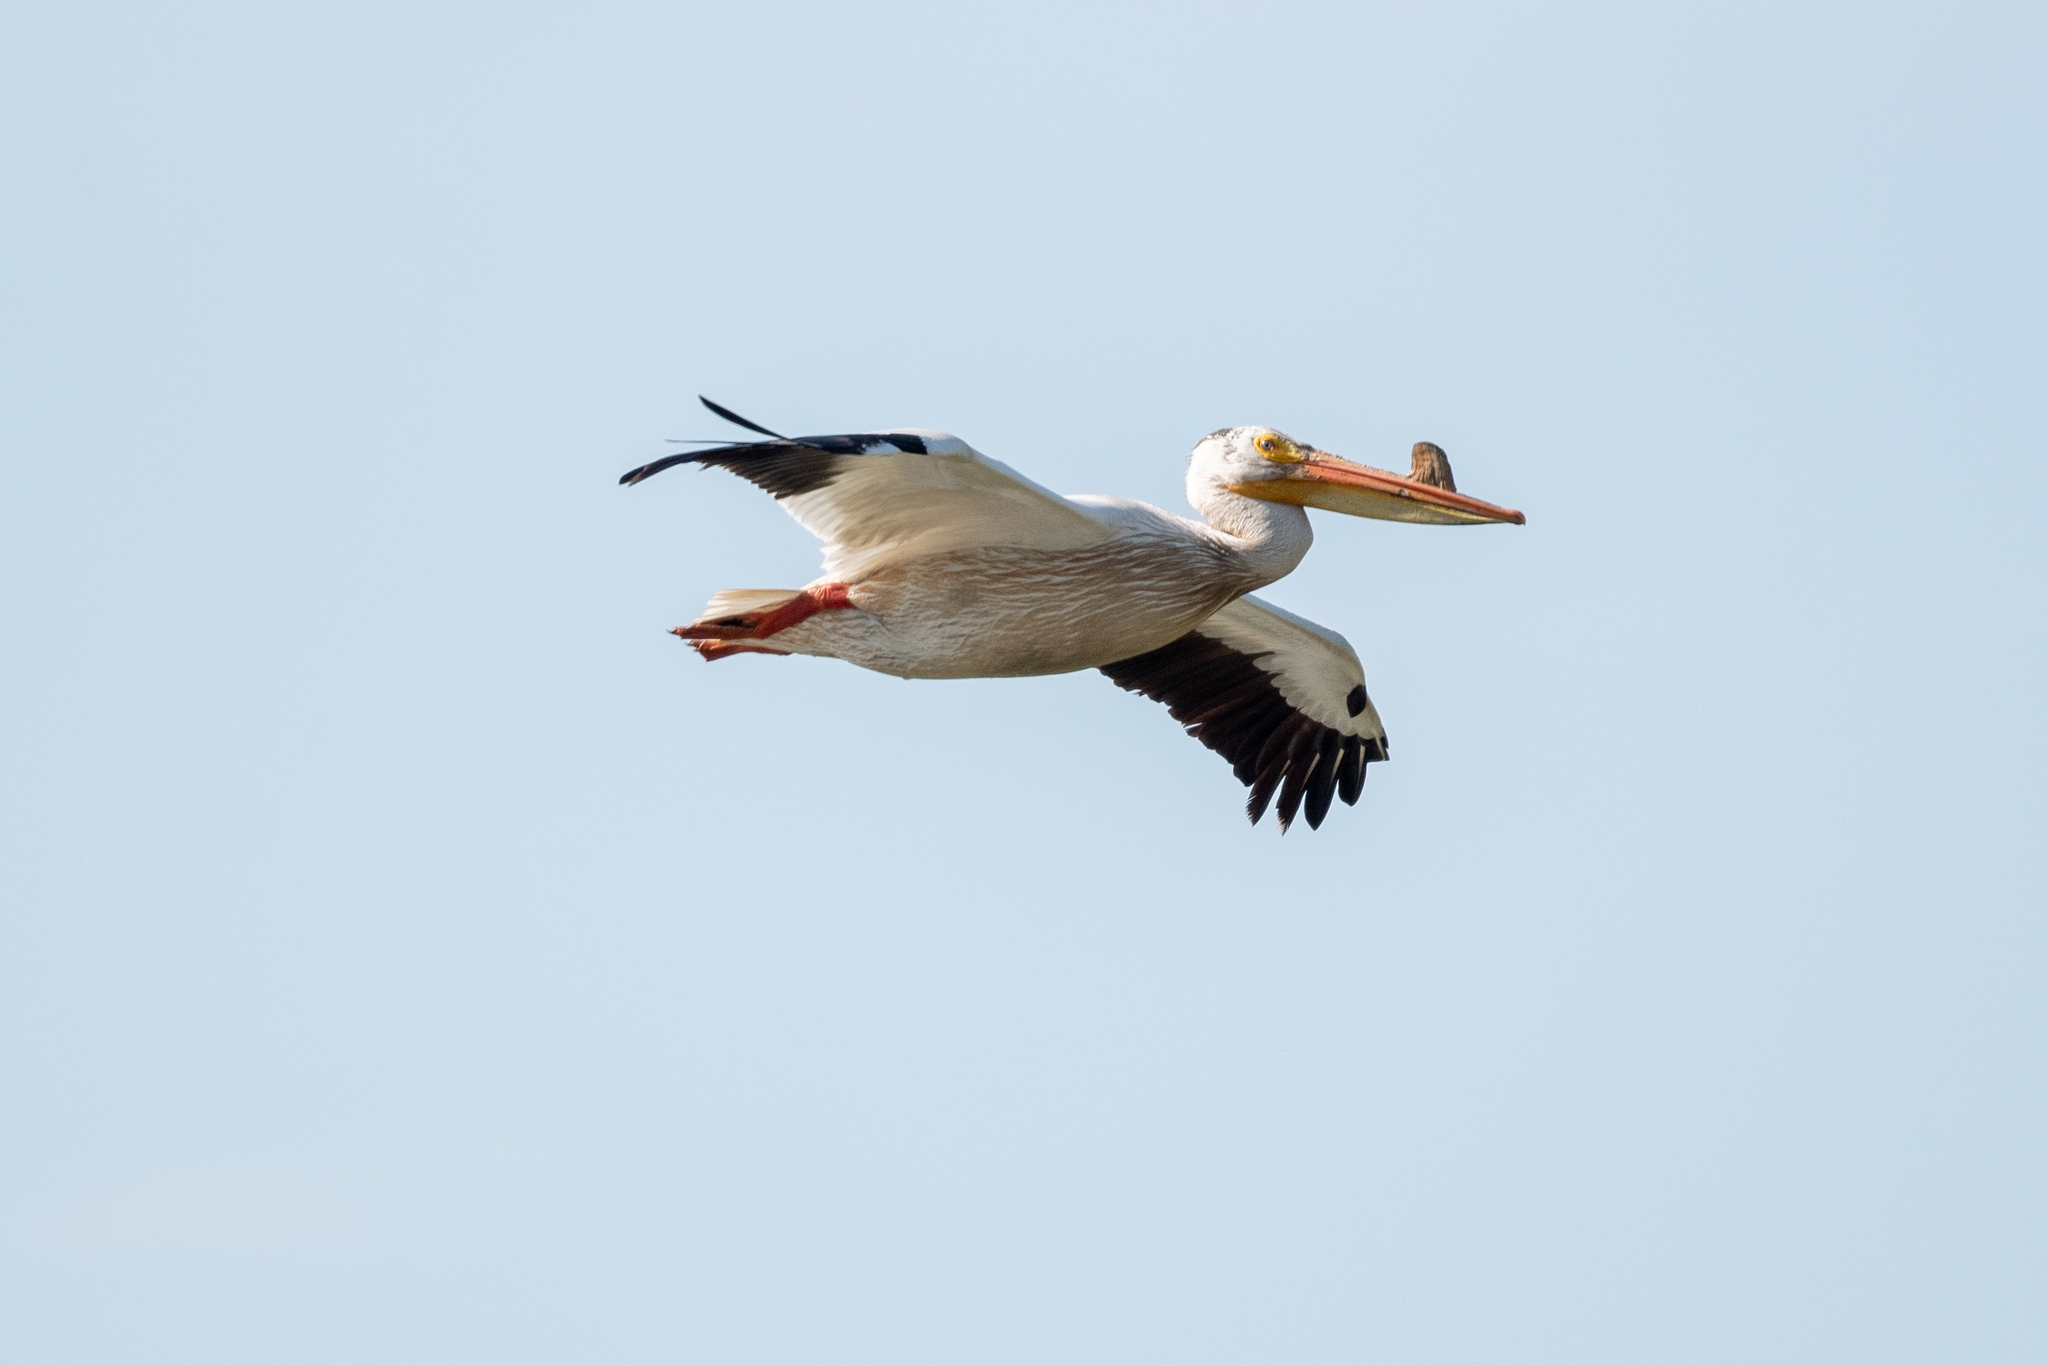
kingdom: Animalia
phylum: Chordata
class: Aves
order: Pelecaniformes
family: Pelecanidae
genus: Pelecanus
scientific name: Pelecanus erythrorhynchos
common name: American white pelican
